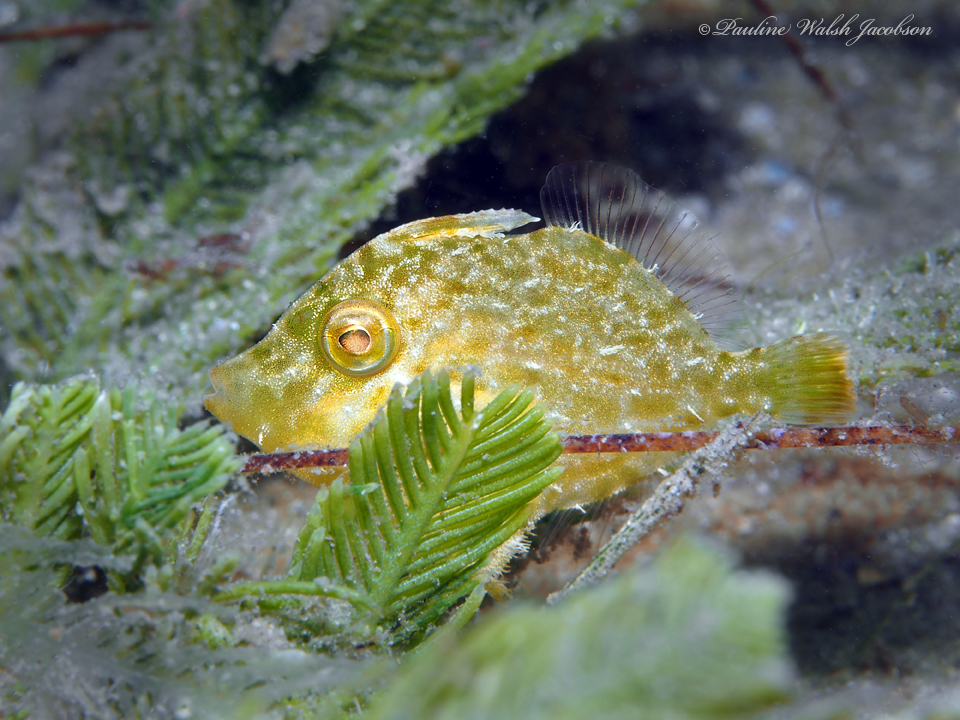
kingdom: Animalia
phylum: Chordata
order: Tetraodontiformes
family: Monacanthidae
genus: Stephanolepis
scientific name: Stephanolepis setifer
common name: Pygmy filefish
